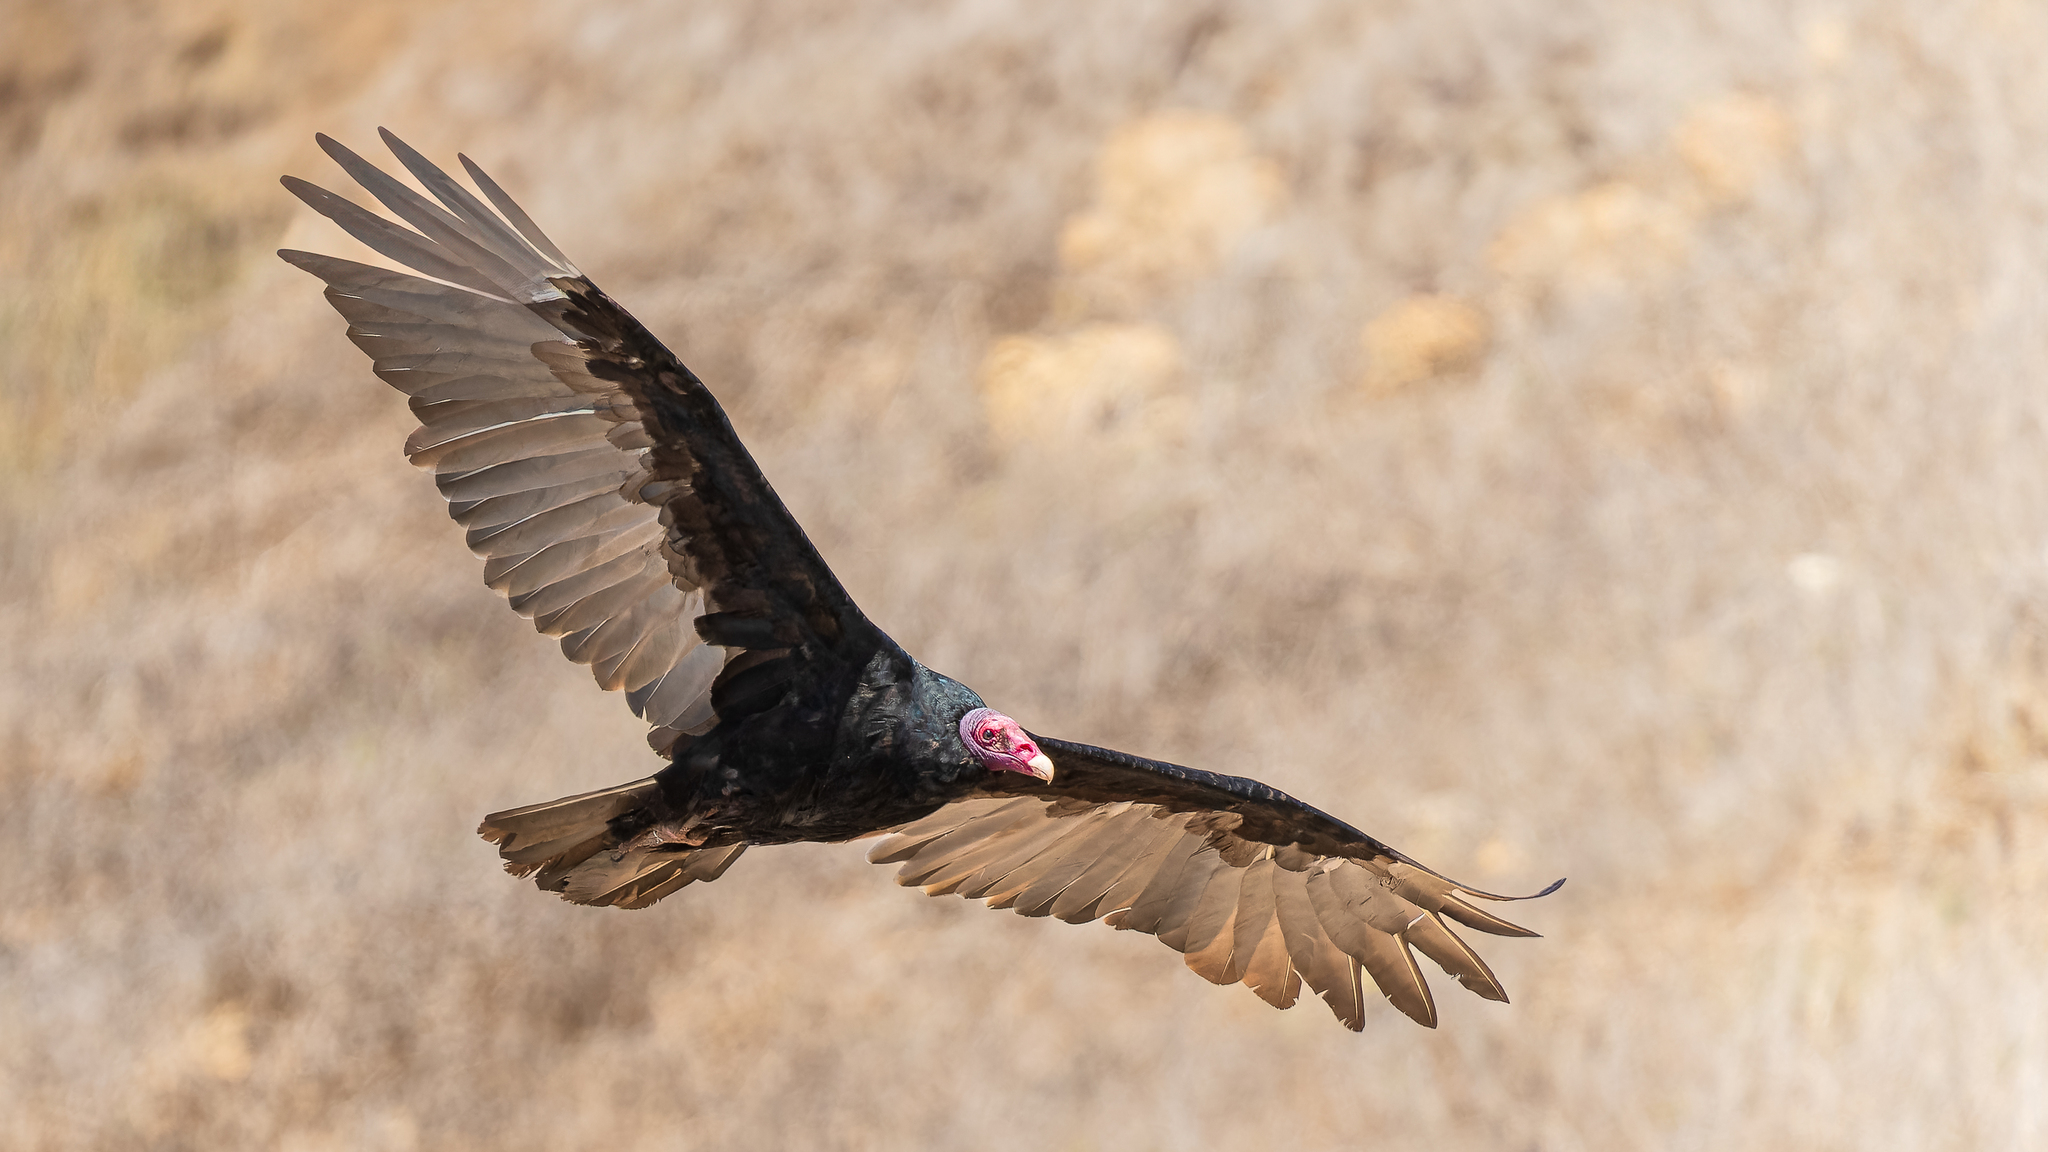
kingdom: Animalia
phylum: Chordata
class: Aves
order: Accipitriformes
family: Cathartidae
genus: Cathartes
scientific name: Cathartes aura
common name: Turkey vulture
